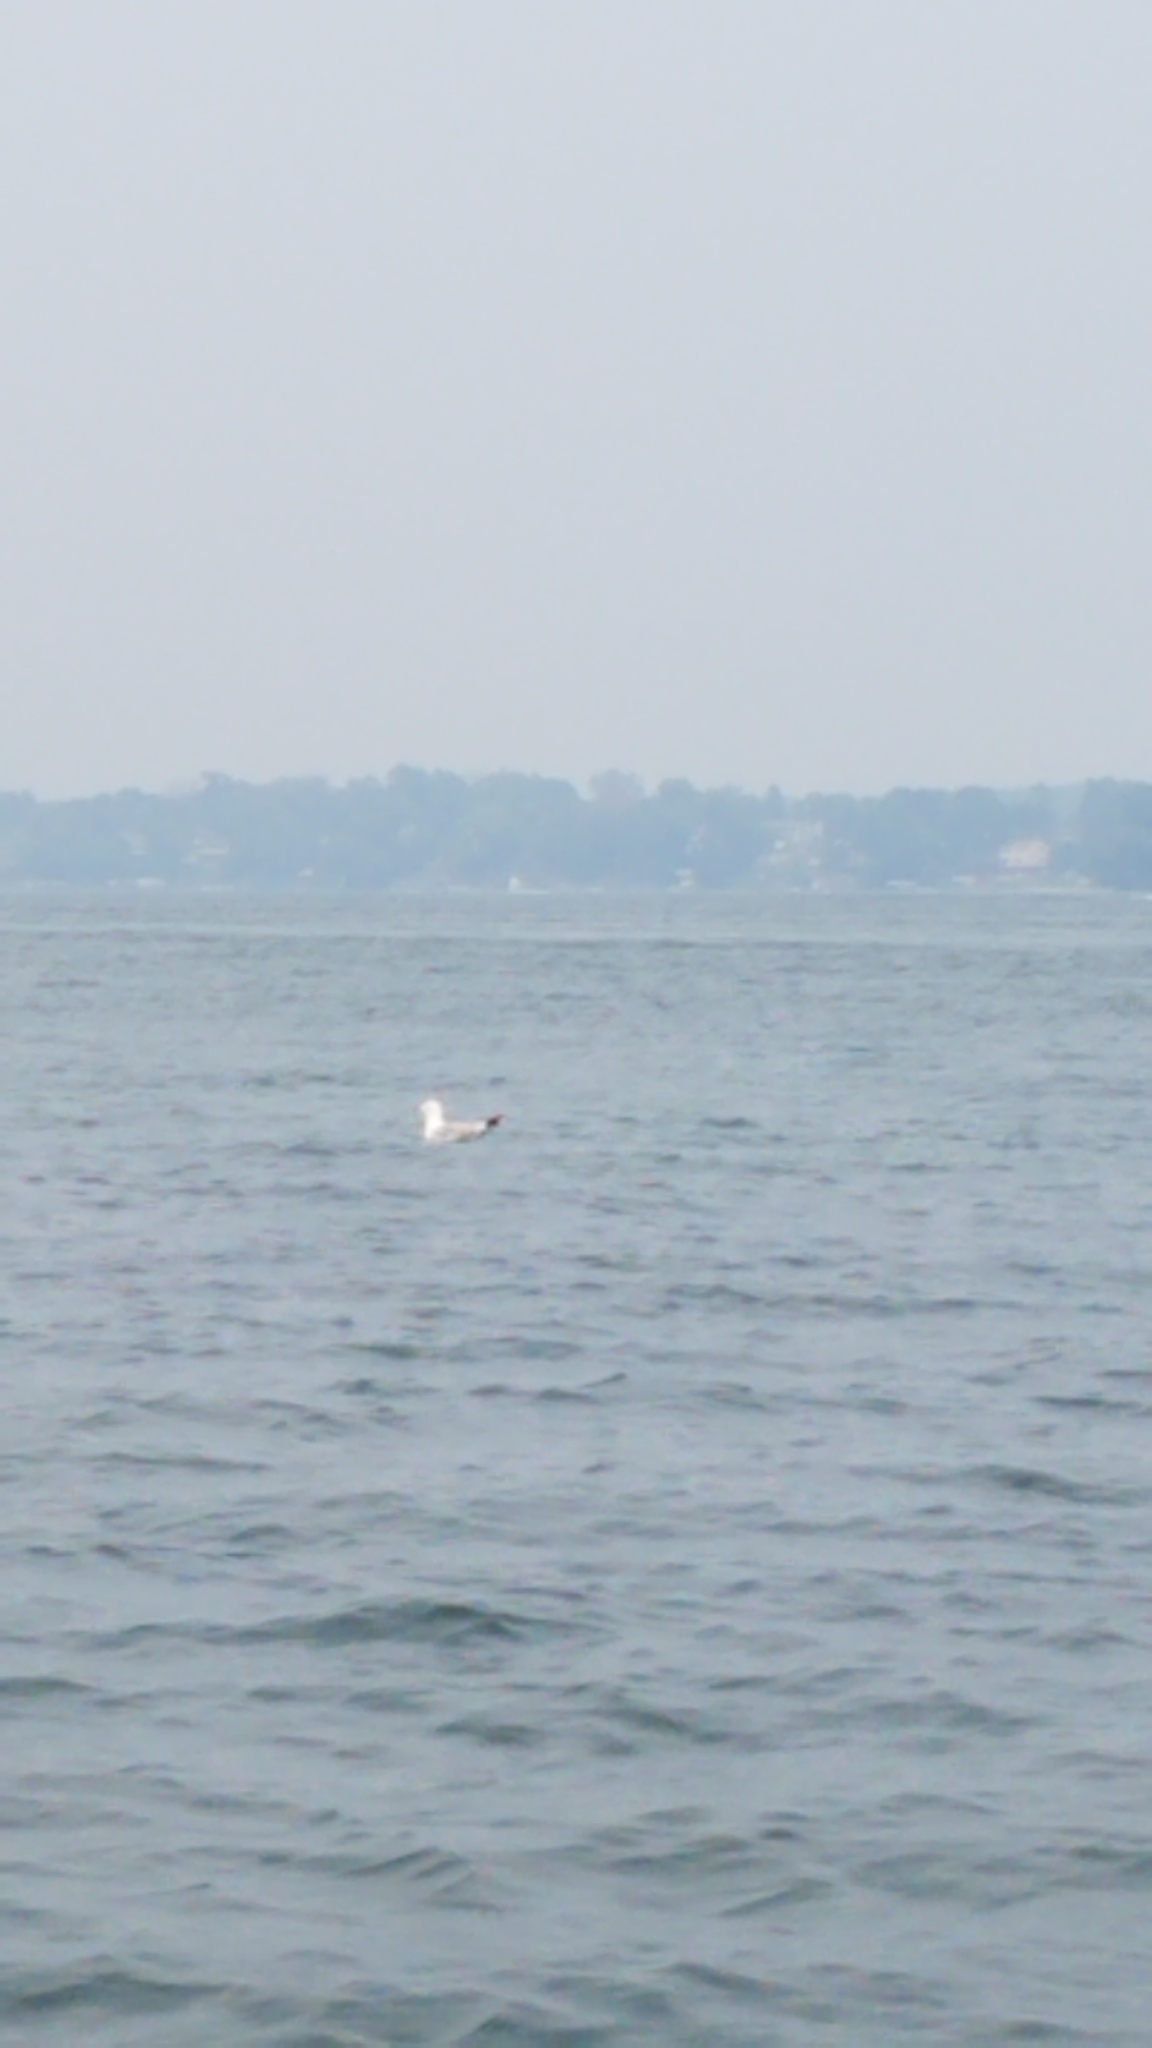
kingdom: Animalia
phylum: Chordata
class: Aves
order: Charadriiformes
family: Laridae
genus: Larus
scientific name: Larus delawarensis
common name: Ring-billed gull
